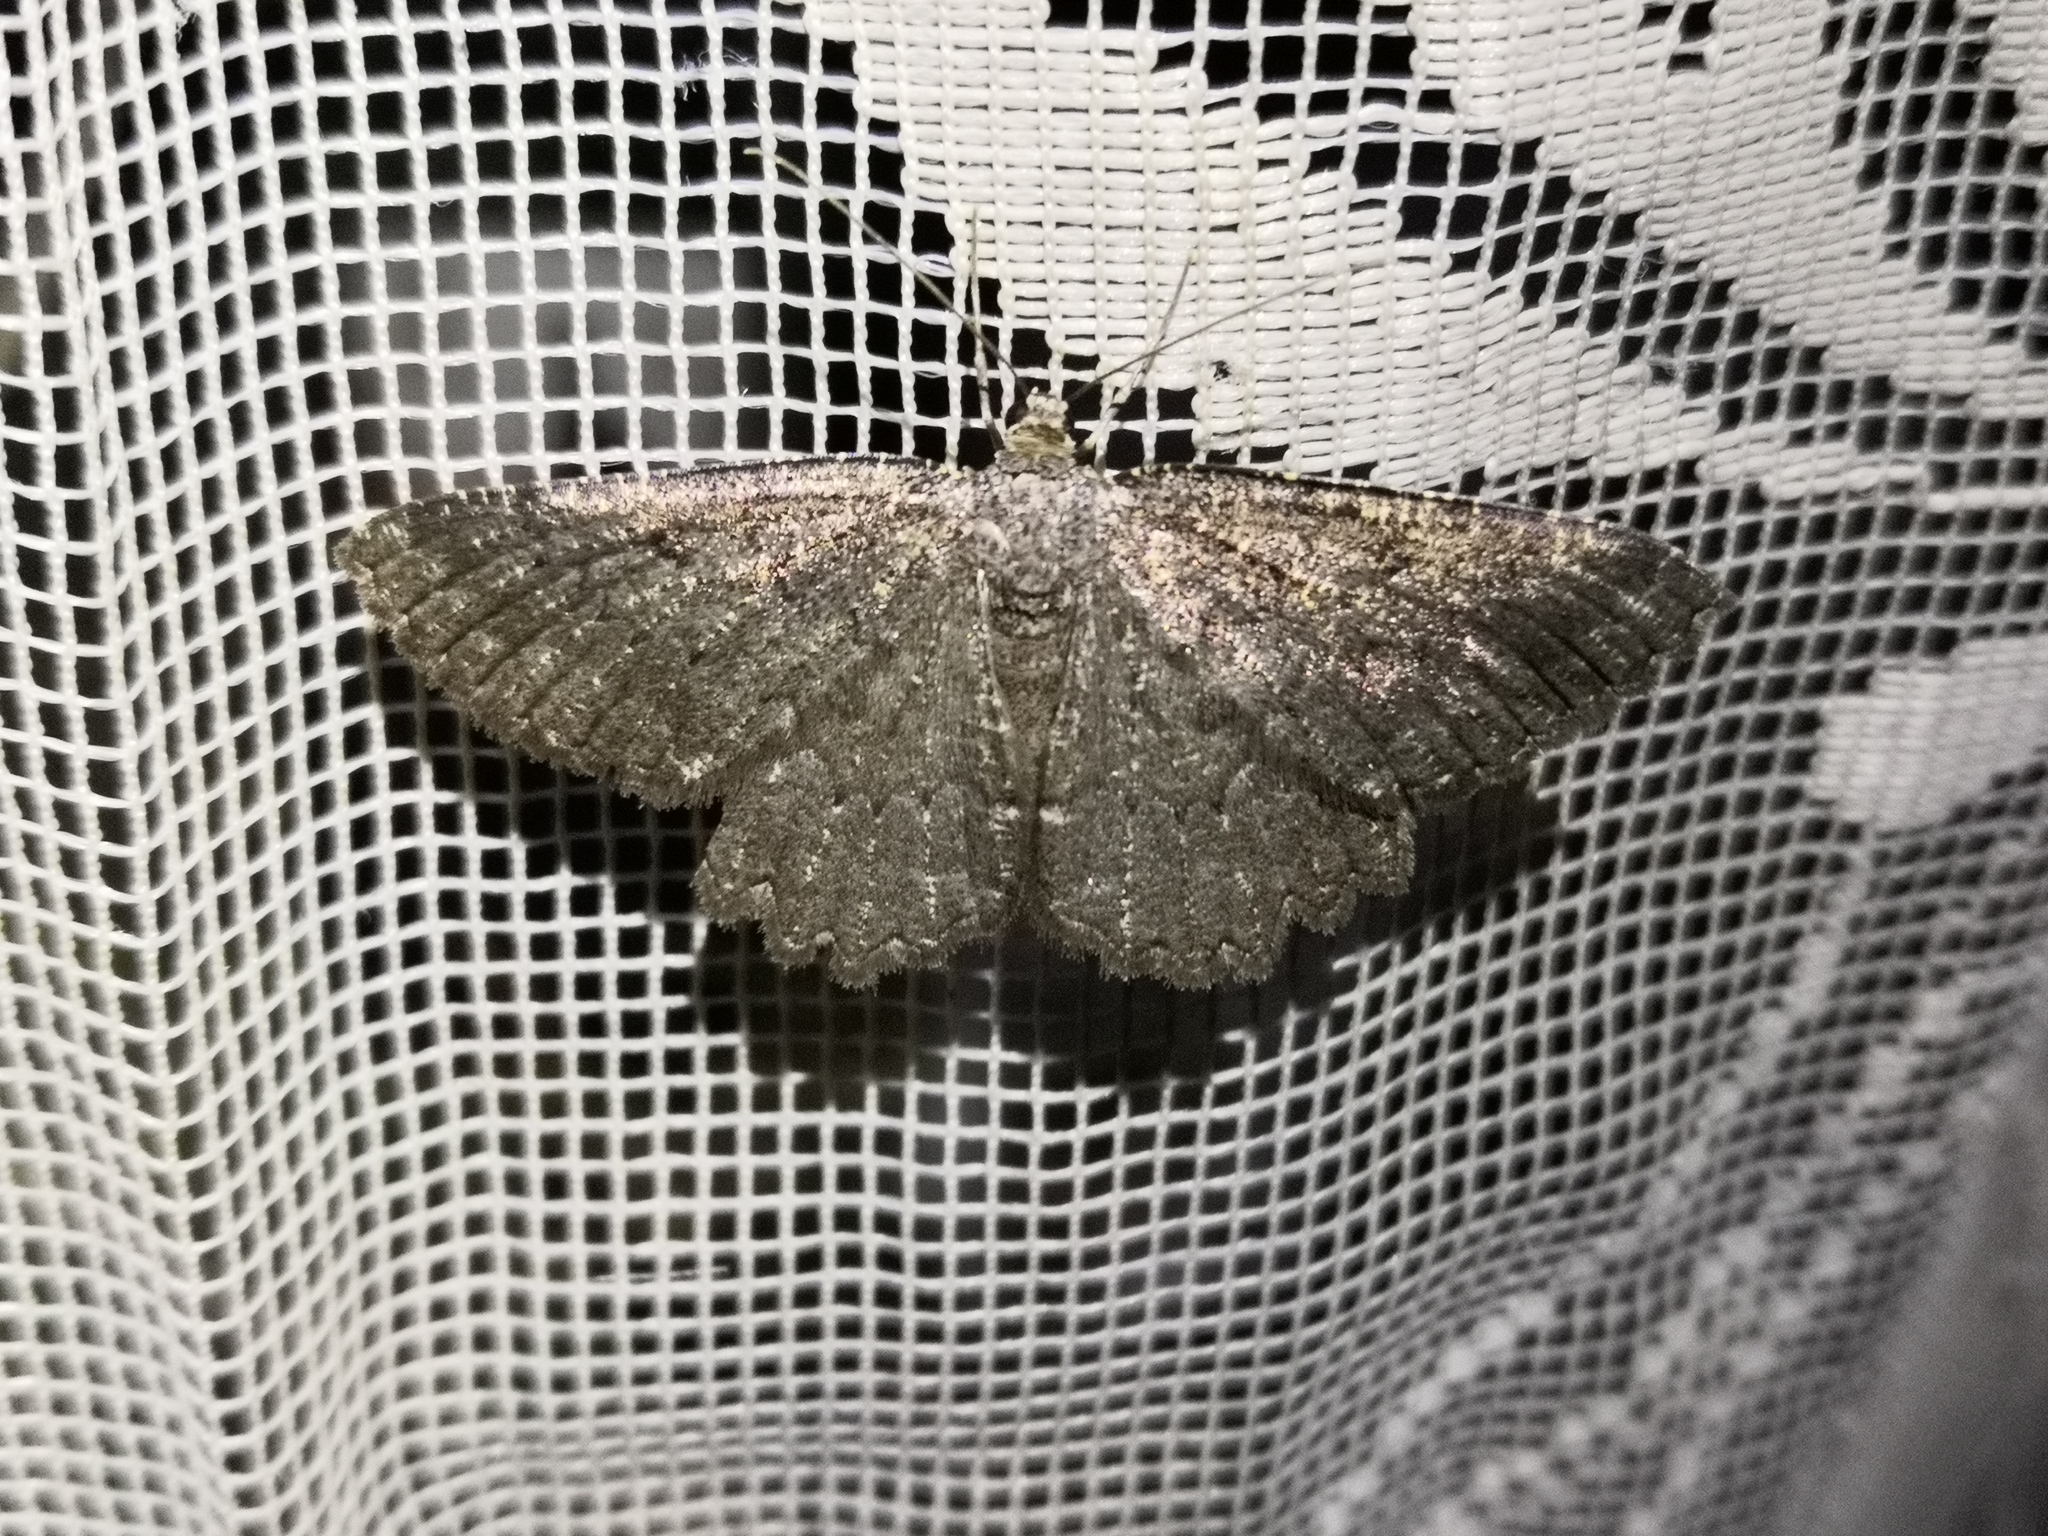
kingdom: Animalia
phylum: Arthropoda
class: Insecta
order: Lepidoptera
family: Geometridae
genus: Charissa
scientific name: Charissa obscurata
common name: Annulet
